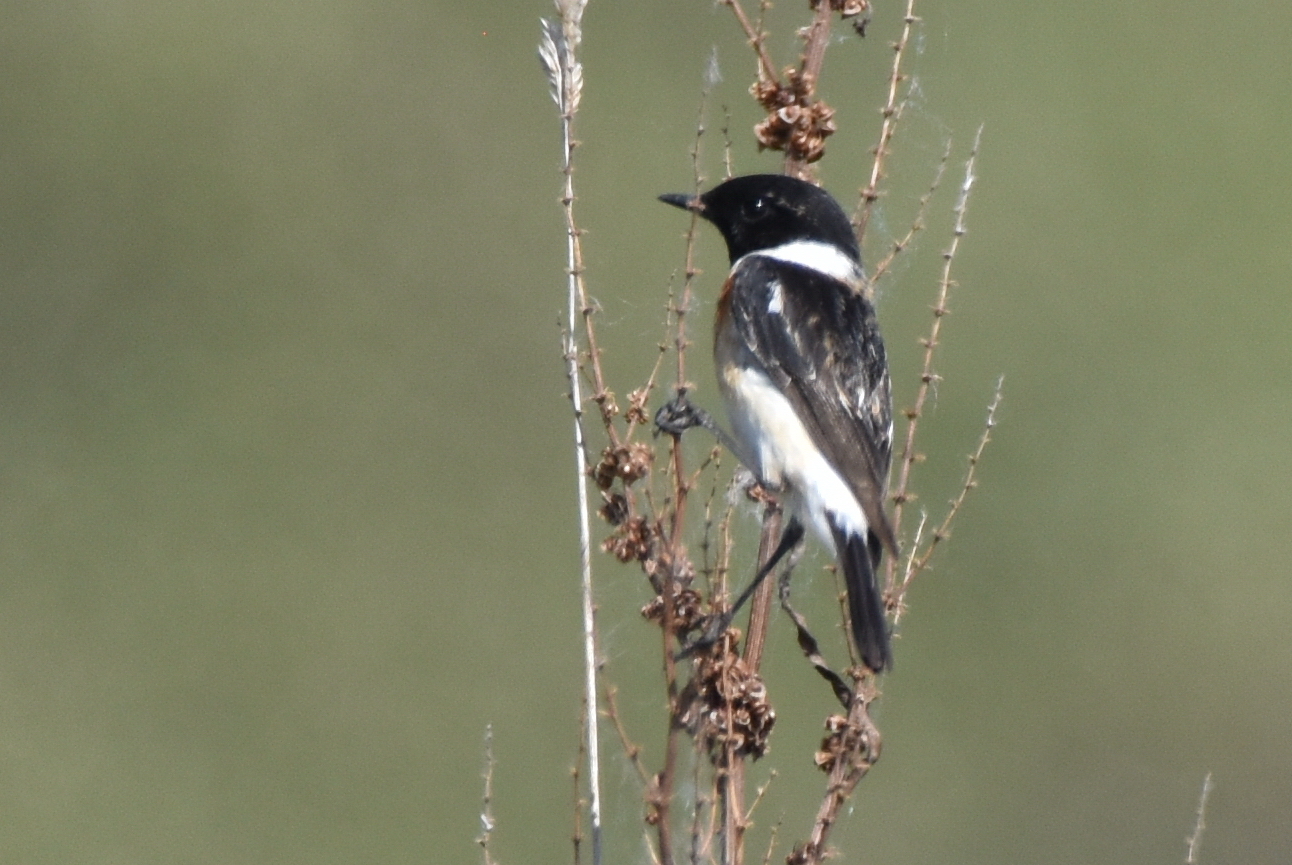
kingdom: Animalia
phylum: Chordata
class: Aves
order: Passeriformes
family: Muscicapidae
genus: Saxicola
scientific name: Saxicola maurus
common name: Siberian stonechat
